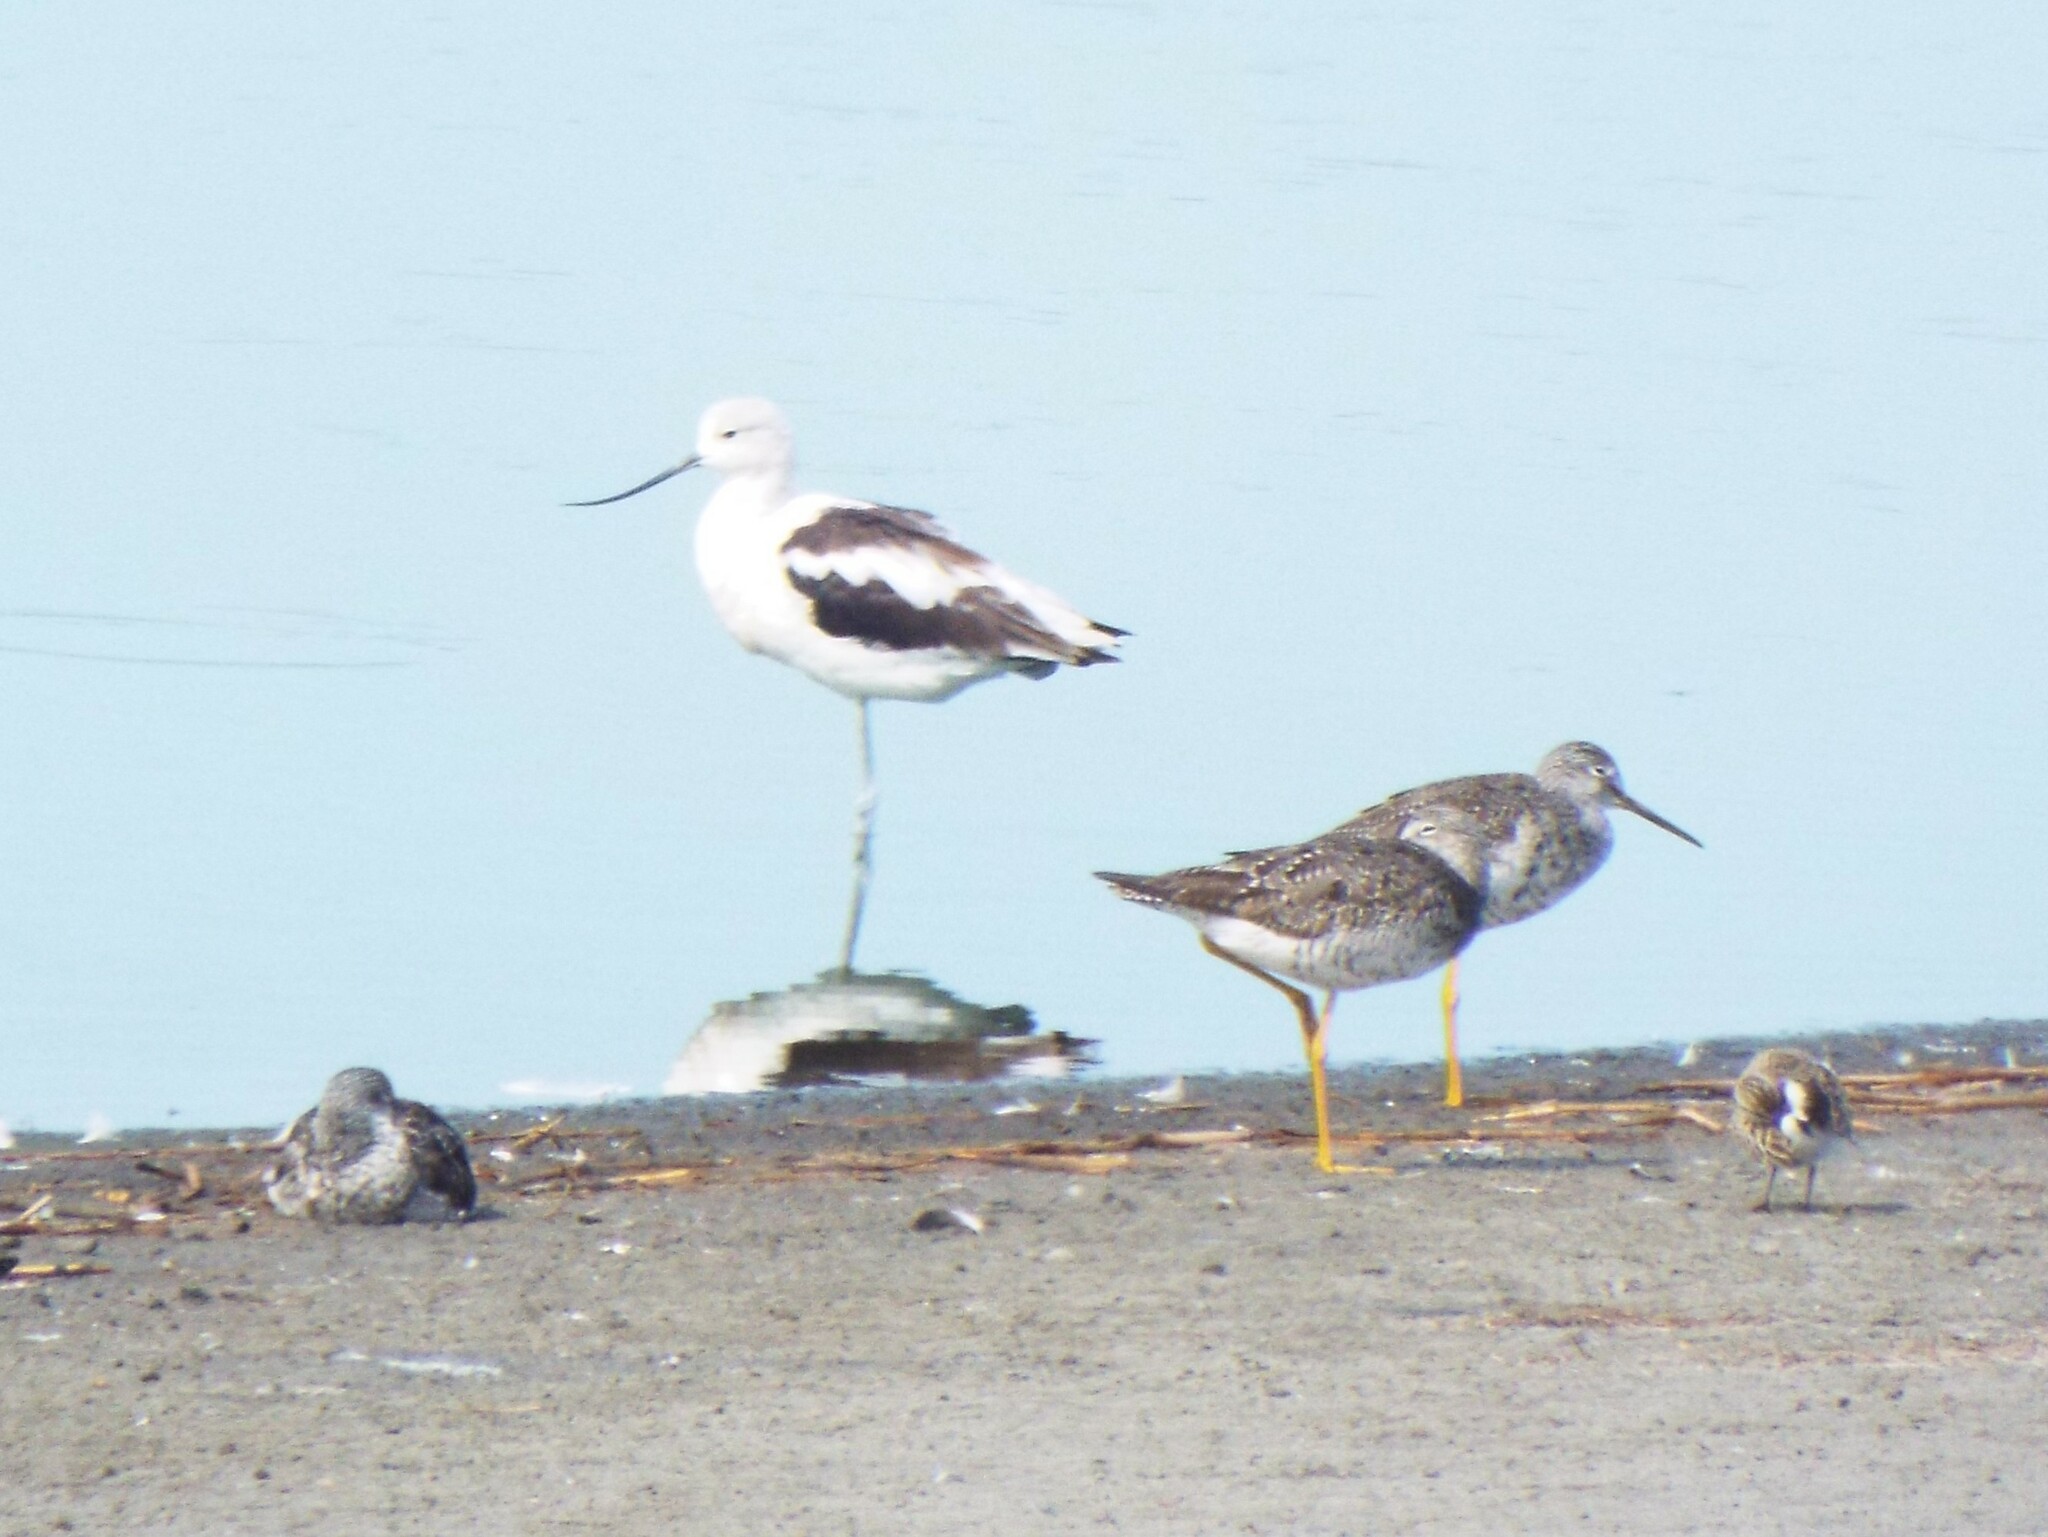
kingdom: Animalia
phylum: Chordata
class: Aves
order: Charadriiformes
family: Recurvirostridae
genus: Recurvirostra
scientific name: Recurvirostra americana
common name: American avocet
